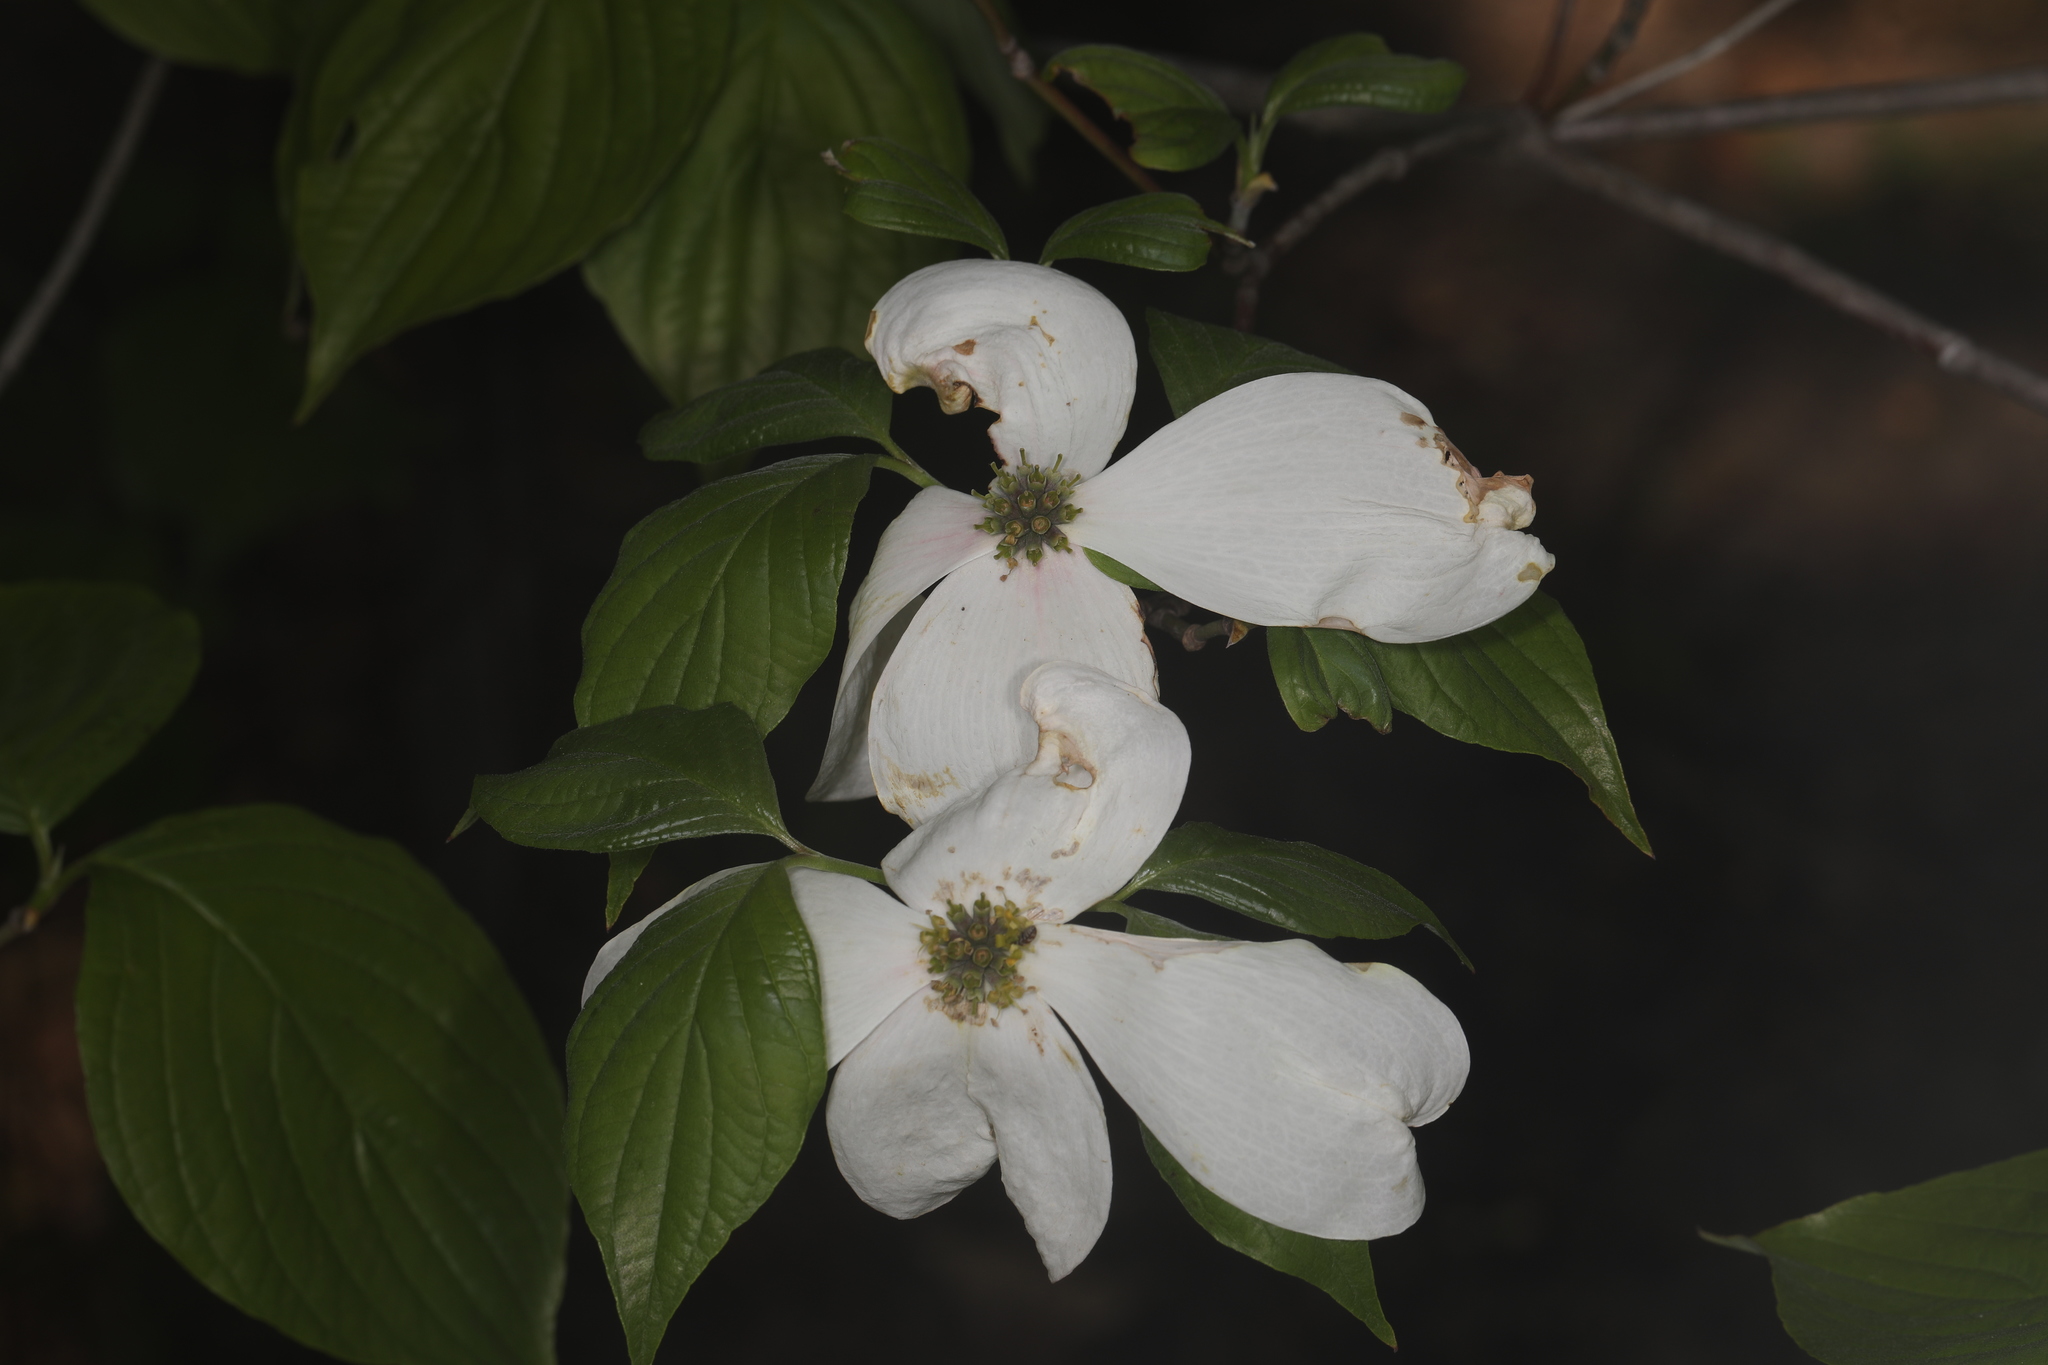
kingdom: Plantae
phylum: Tracheophyta
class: Magnoliopsida
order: Cornales
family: Cornaceae
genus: Cornus
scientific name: Cornus florida
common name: Flowering dogwood
